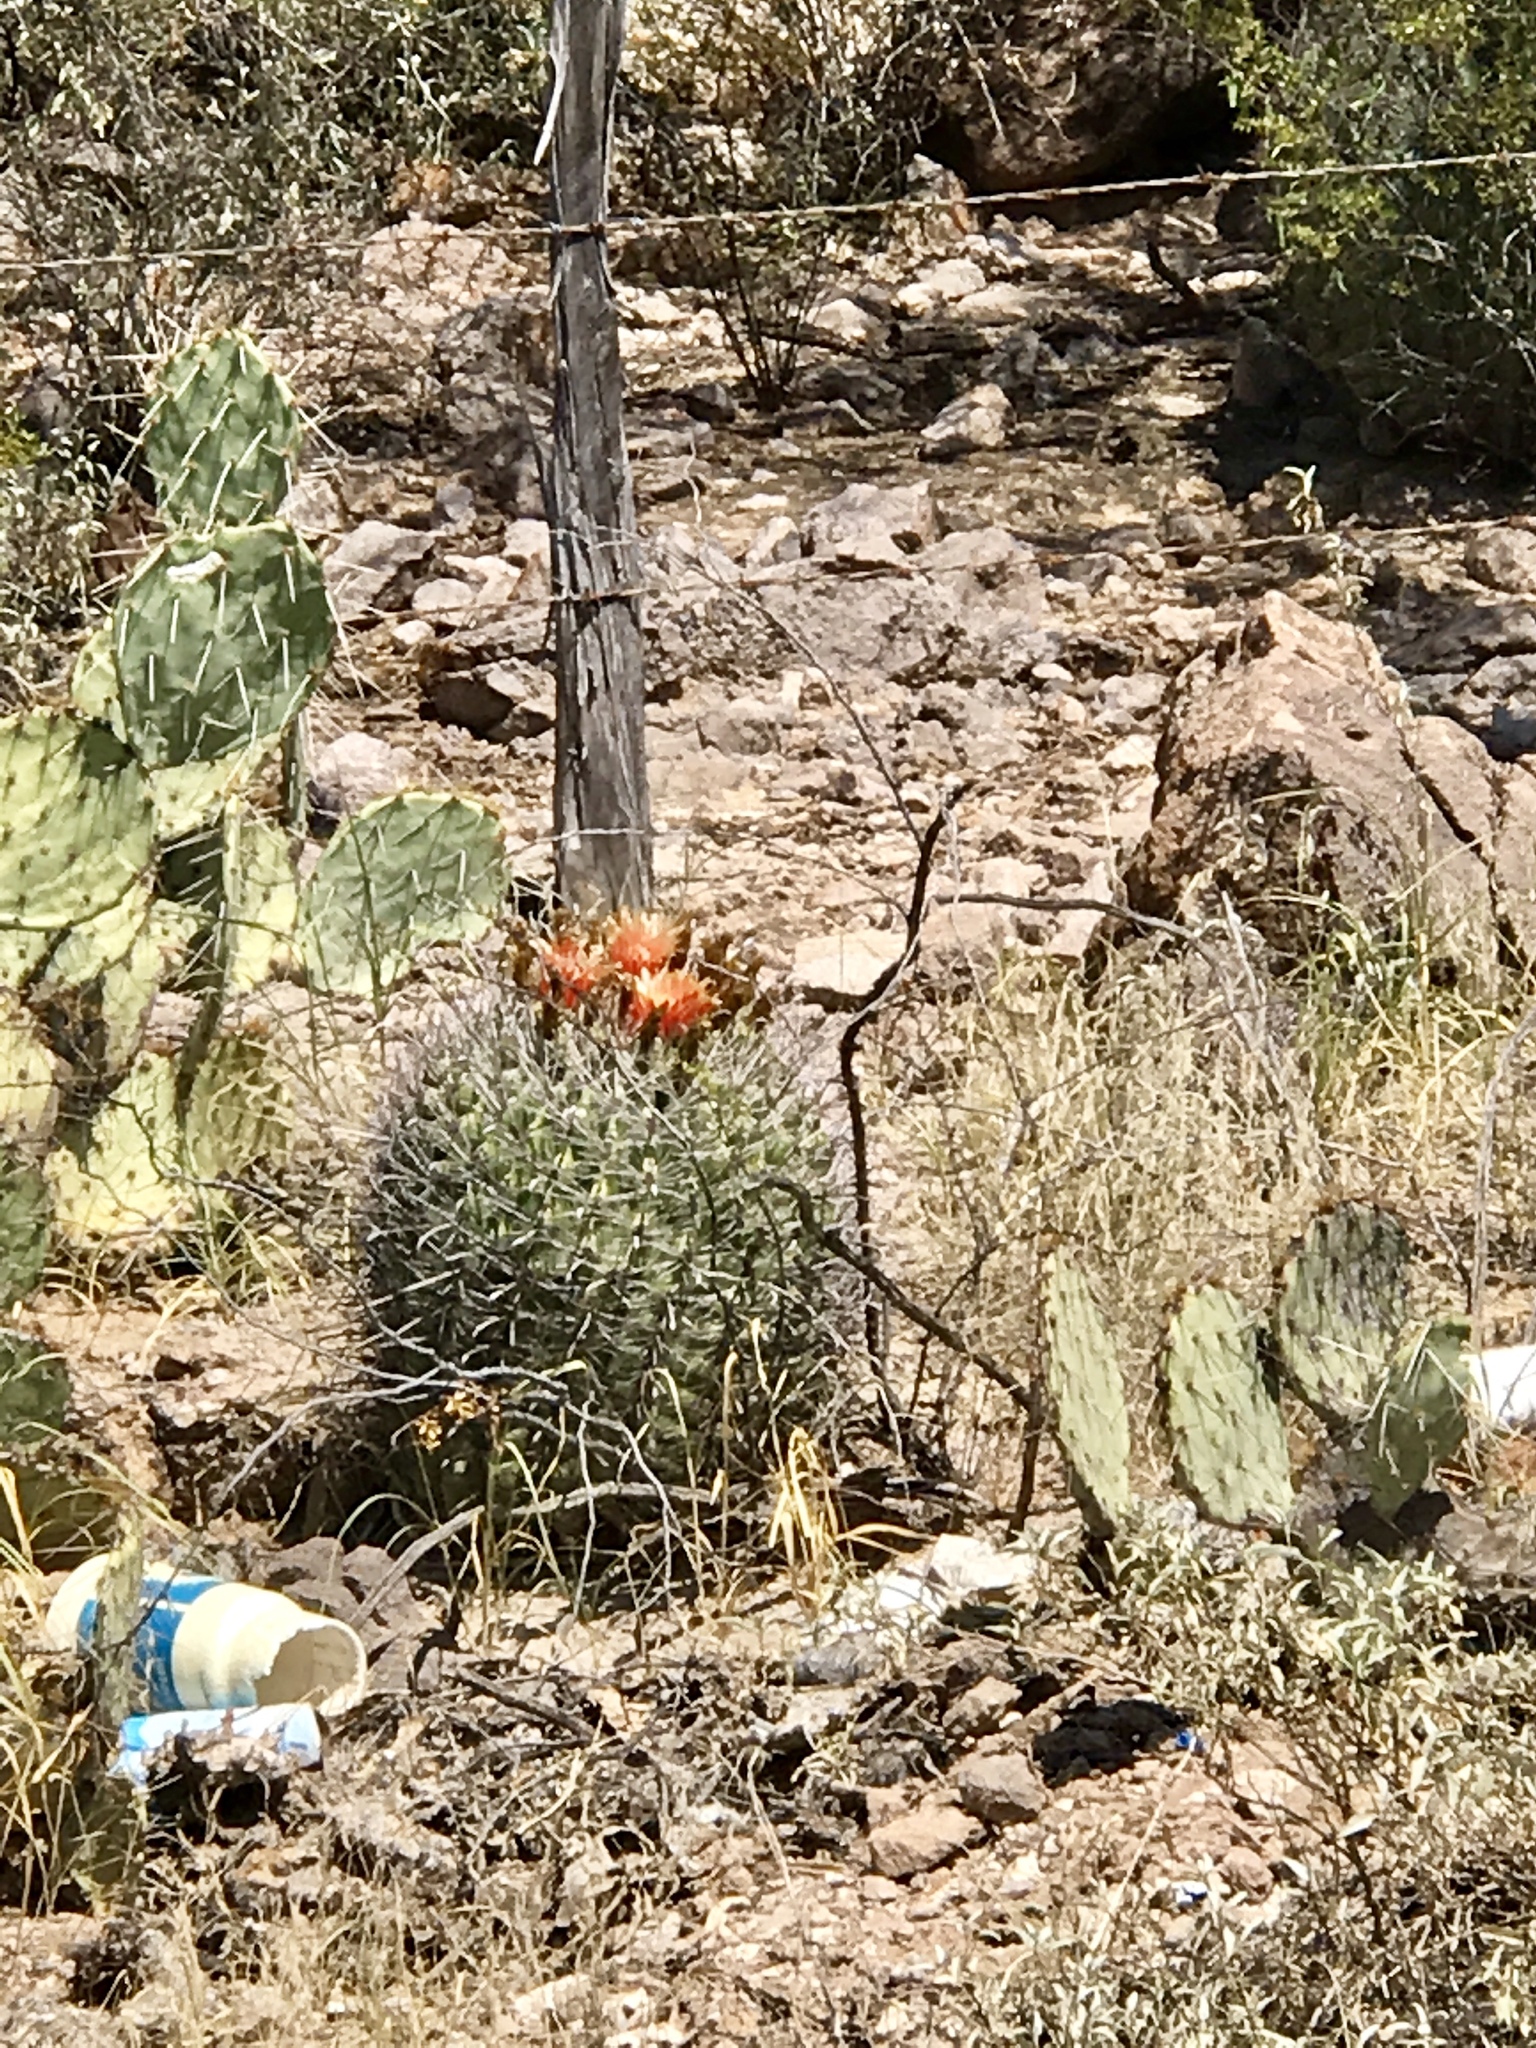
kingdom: Plantae
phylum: Tracheophyta
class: Magnoliopsida
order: Caryophyllales
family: Cactaceae
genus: Ferocactus
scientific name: Ferocactus wislizeni
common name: Candy barrel cactus
